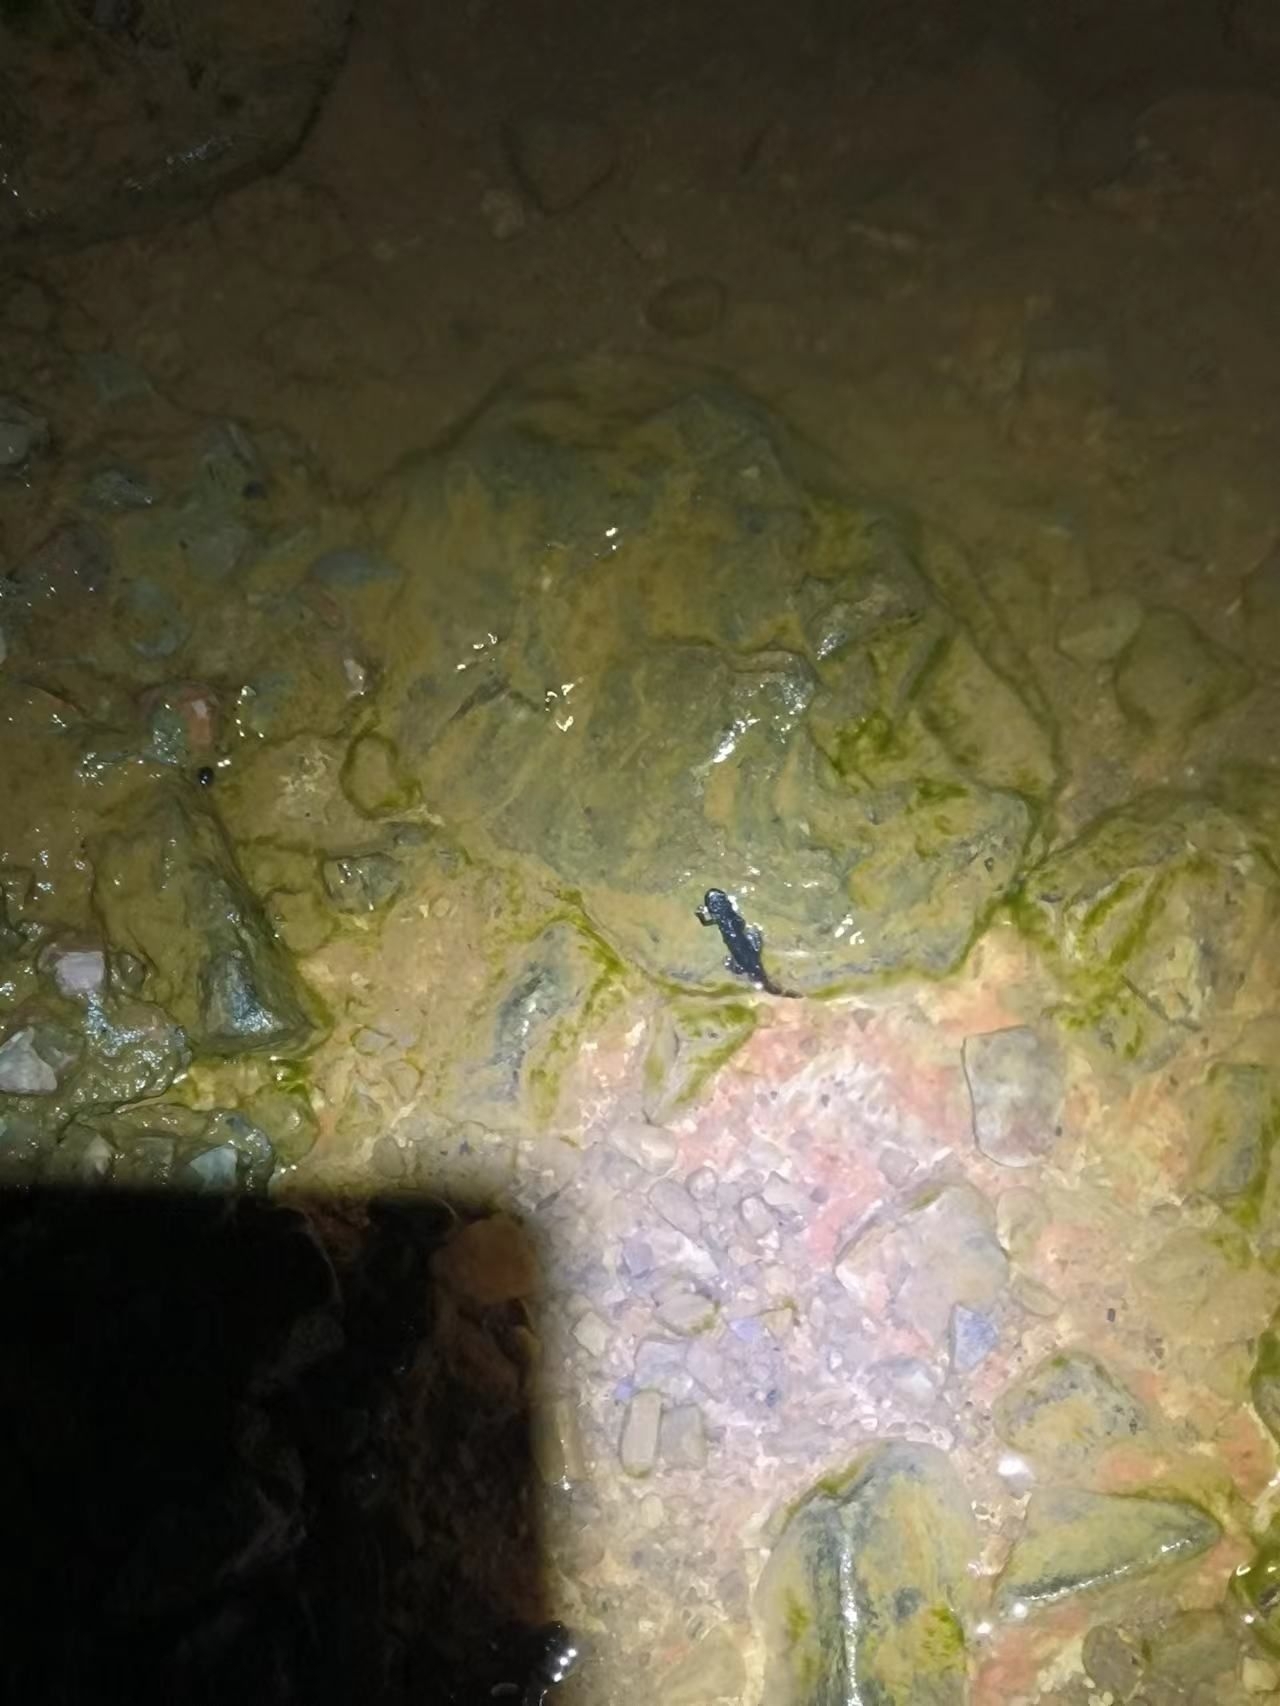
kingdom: Animalia
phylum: Chordata
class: Amphibia
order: Caudata
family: Salamandridae
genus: Cynops
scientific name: Cynops orientalis
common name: Chinese dwarf newt
